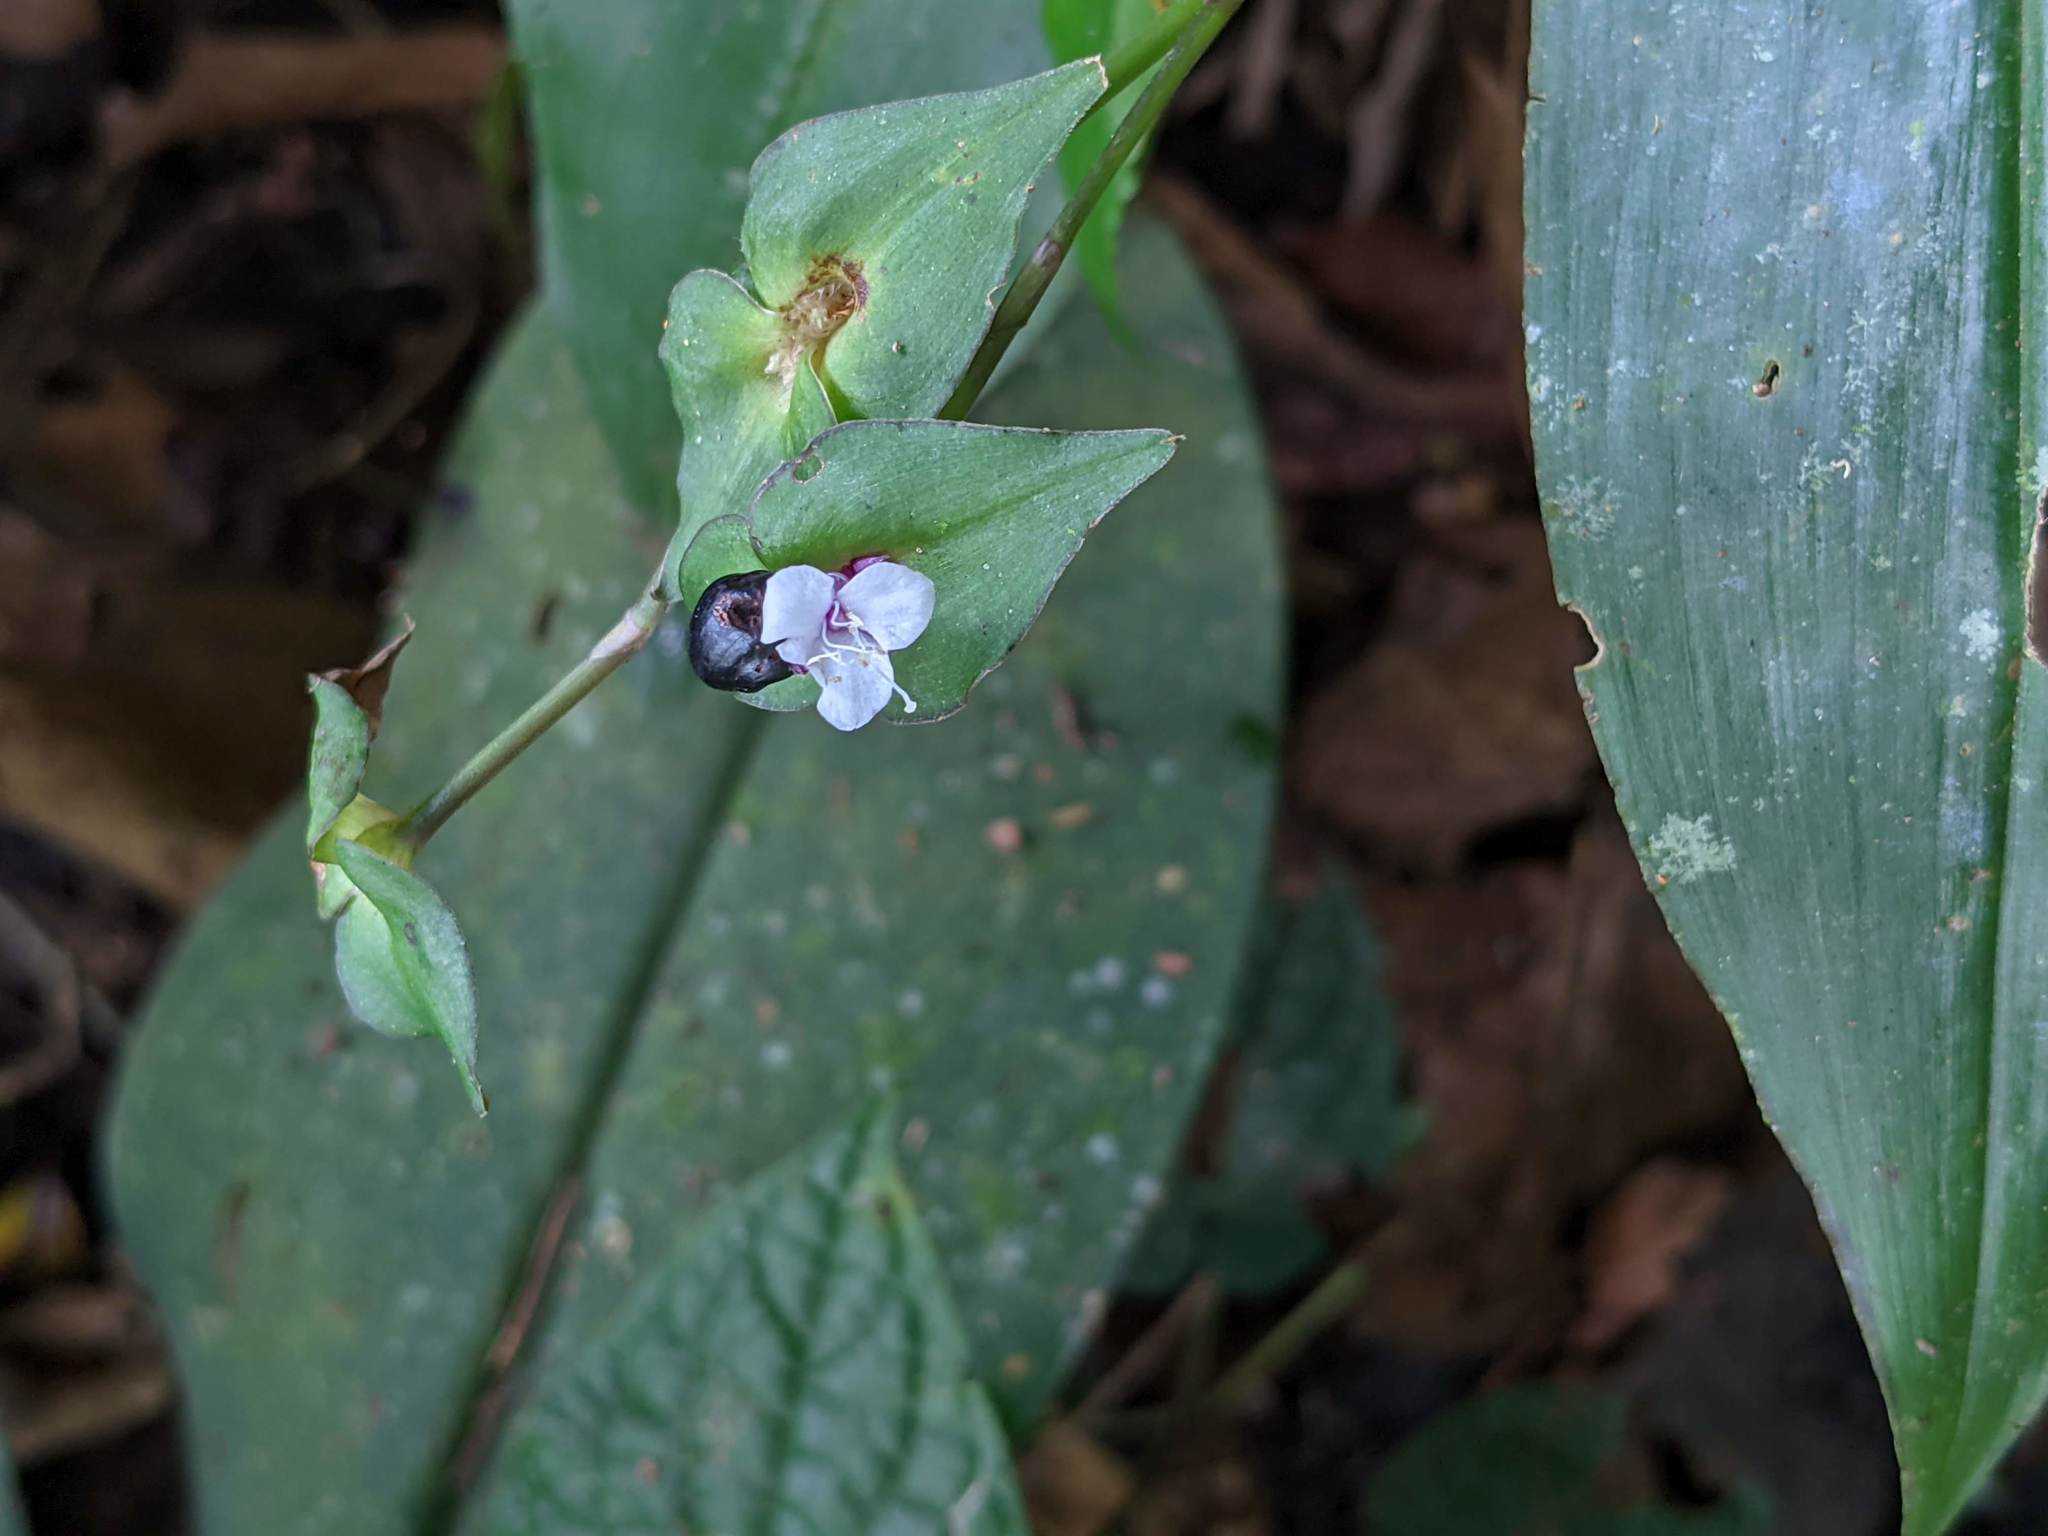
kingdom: Plantae
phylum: Tracheophyta
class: Liliopsida
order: Commelinales
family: Commelinaceae
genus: Tradescantia
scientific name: Tradescantia zanonia
